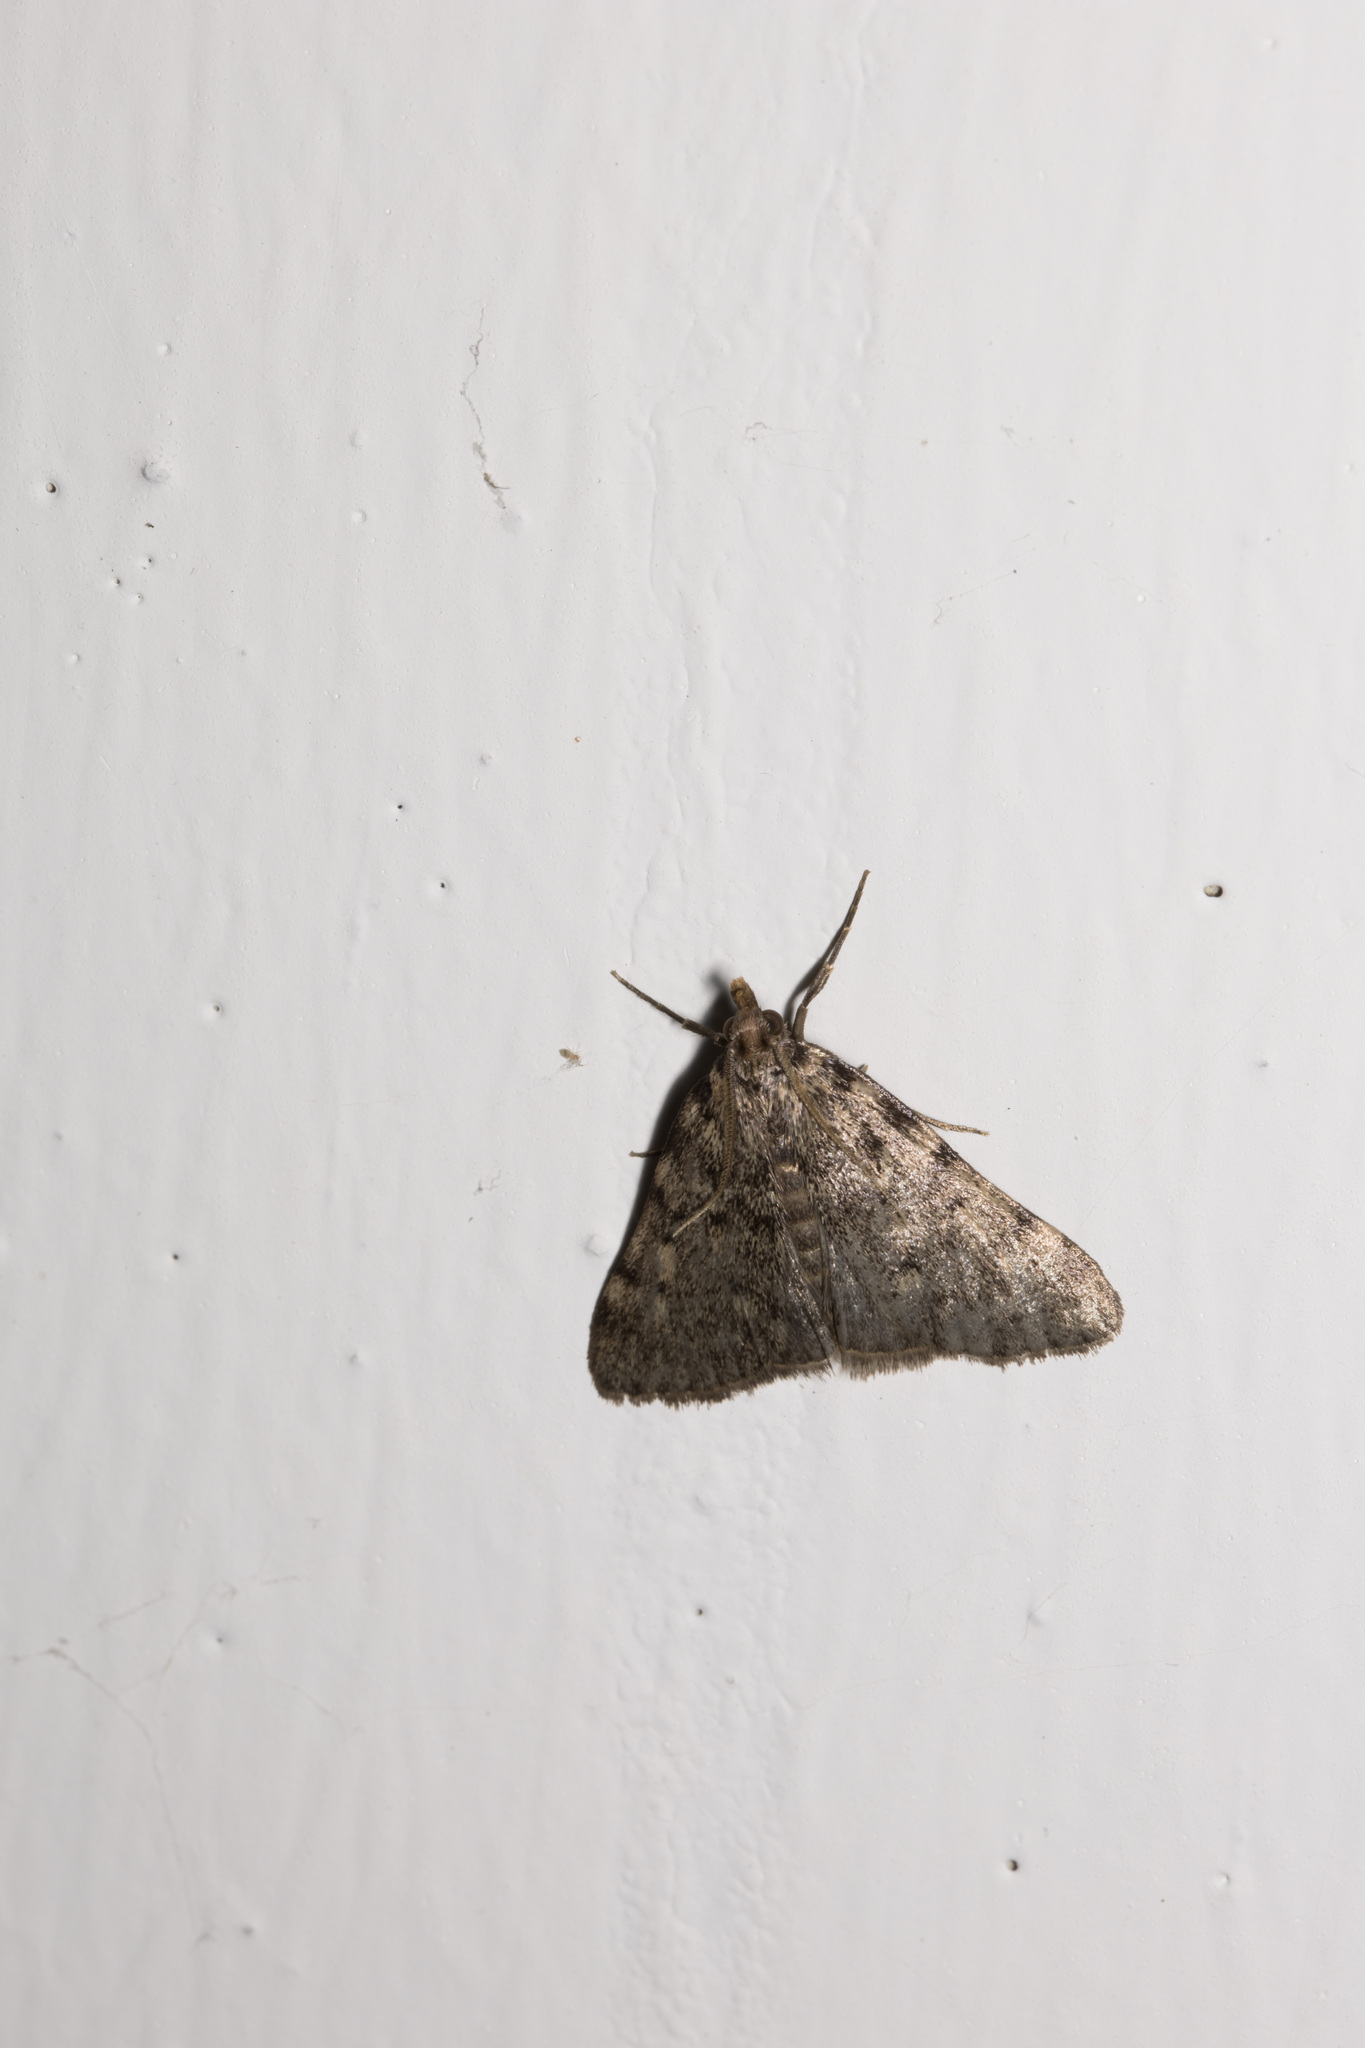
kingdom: Animalia
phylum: Arthropoda
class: Insecta
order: Lepidoptera
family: Pyralidae
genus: Aglossa
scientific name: Aglossa pinguinalis
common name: Large tabby
